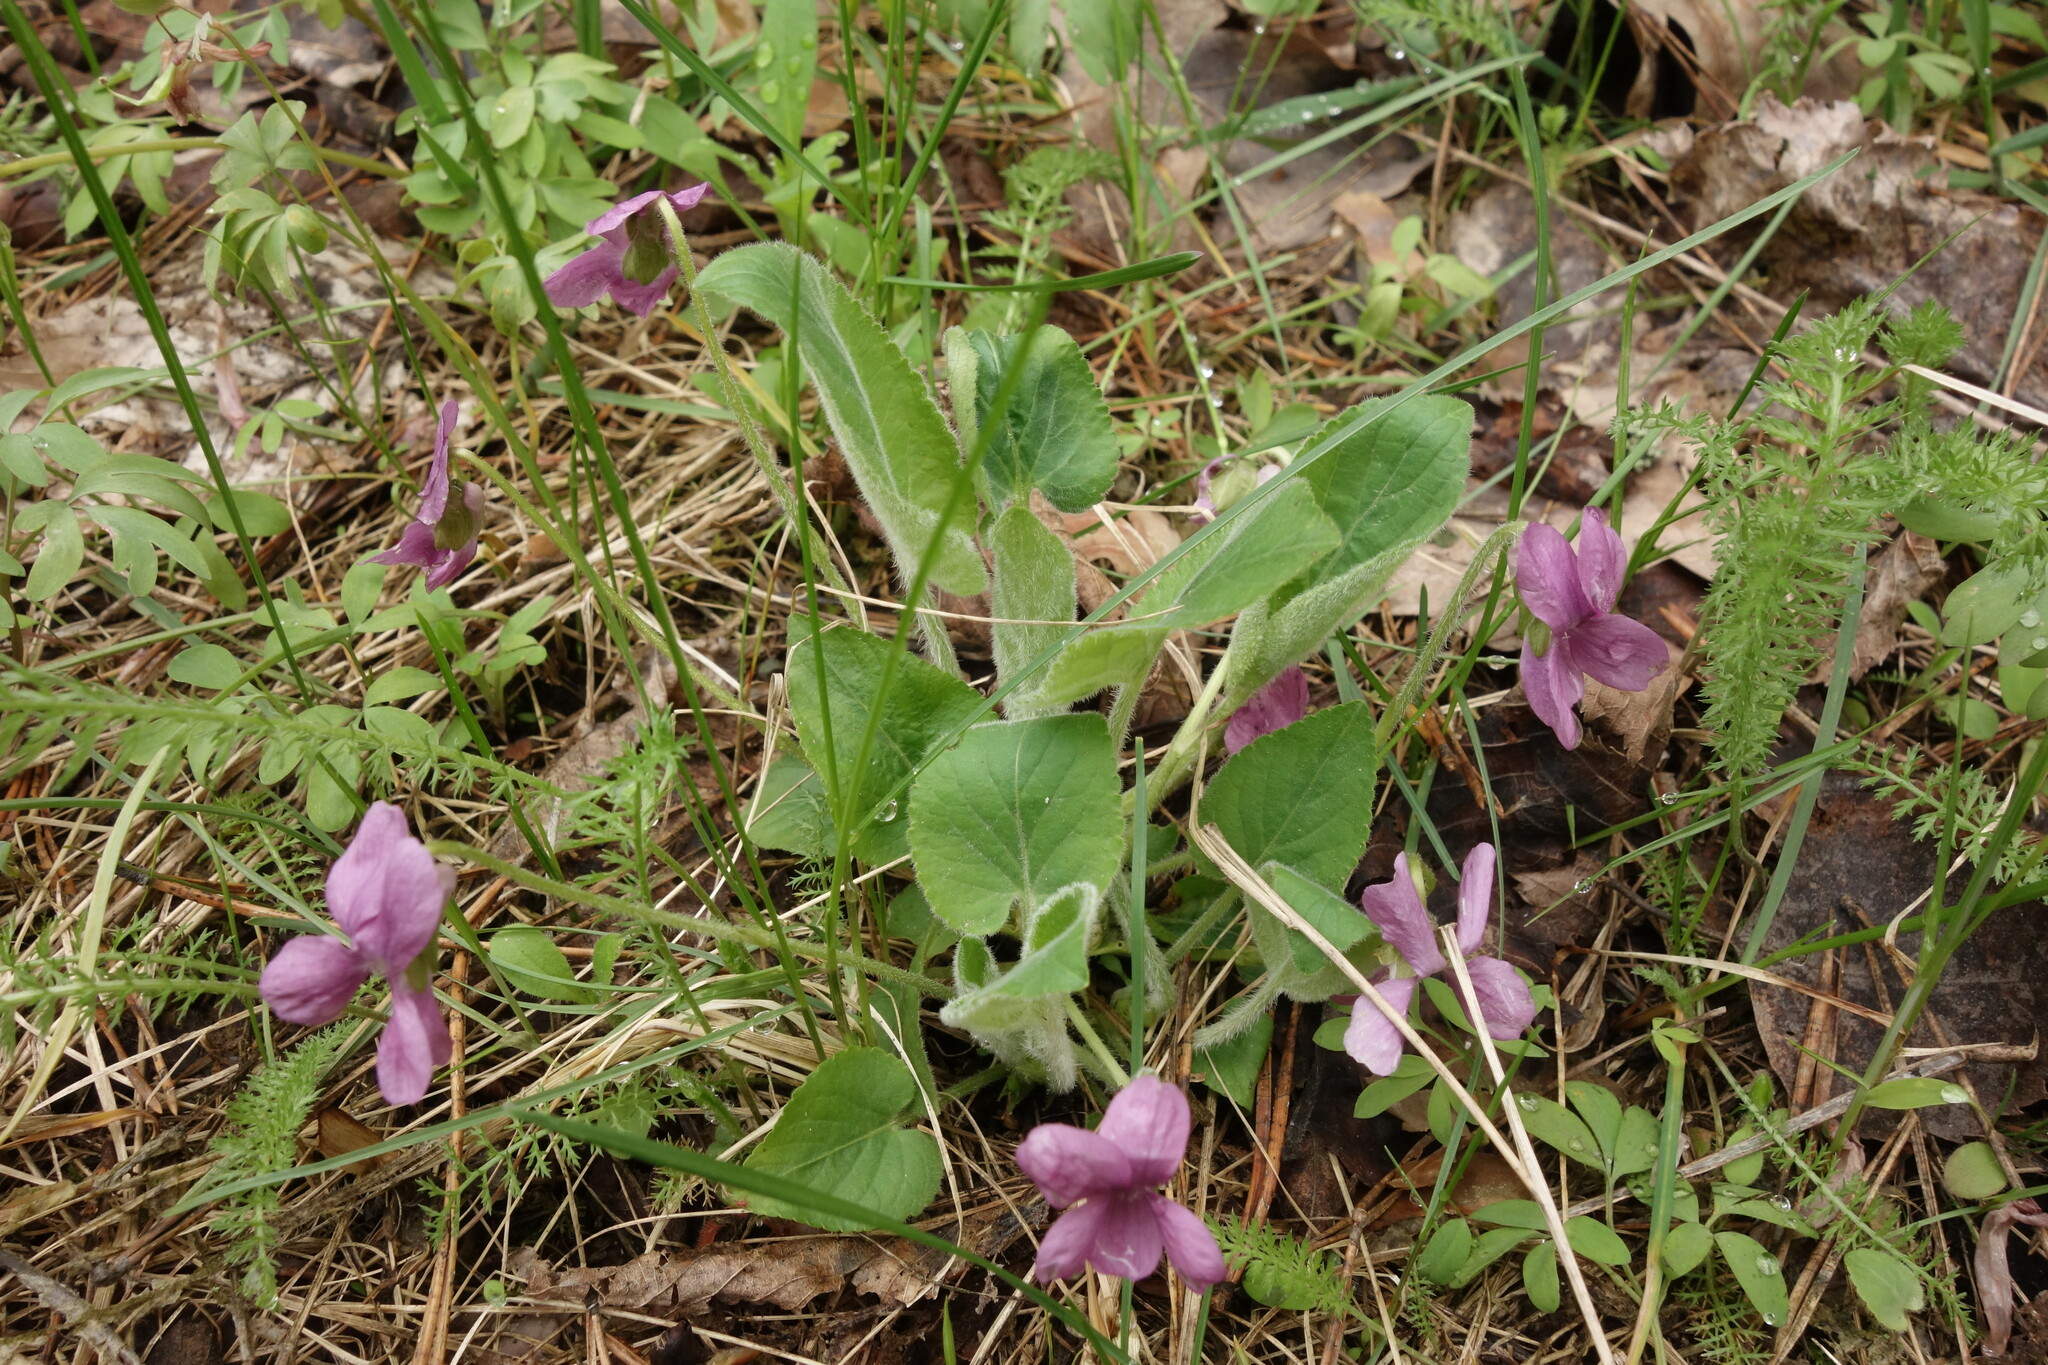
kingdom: Plantae
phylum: Tracheophyta
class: Magnoliopsida
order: Malpighiales
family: Violaceae
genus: Viola
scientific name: Viola hirta
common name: Hairy violet
